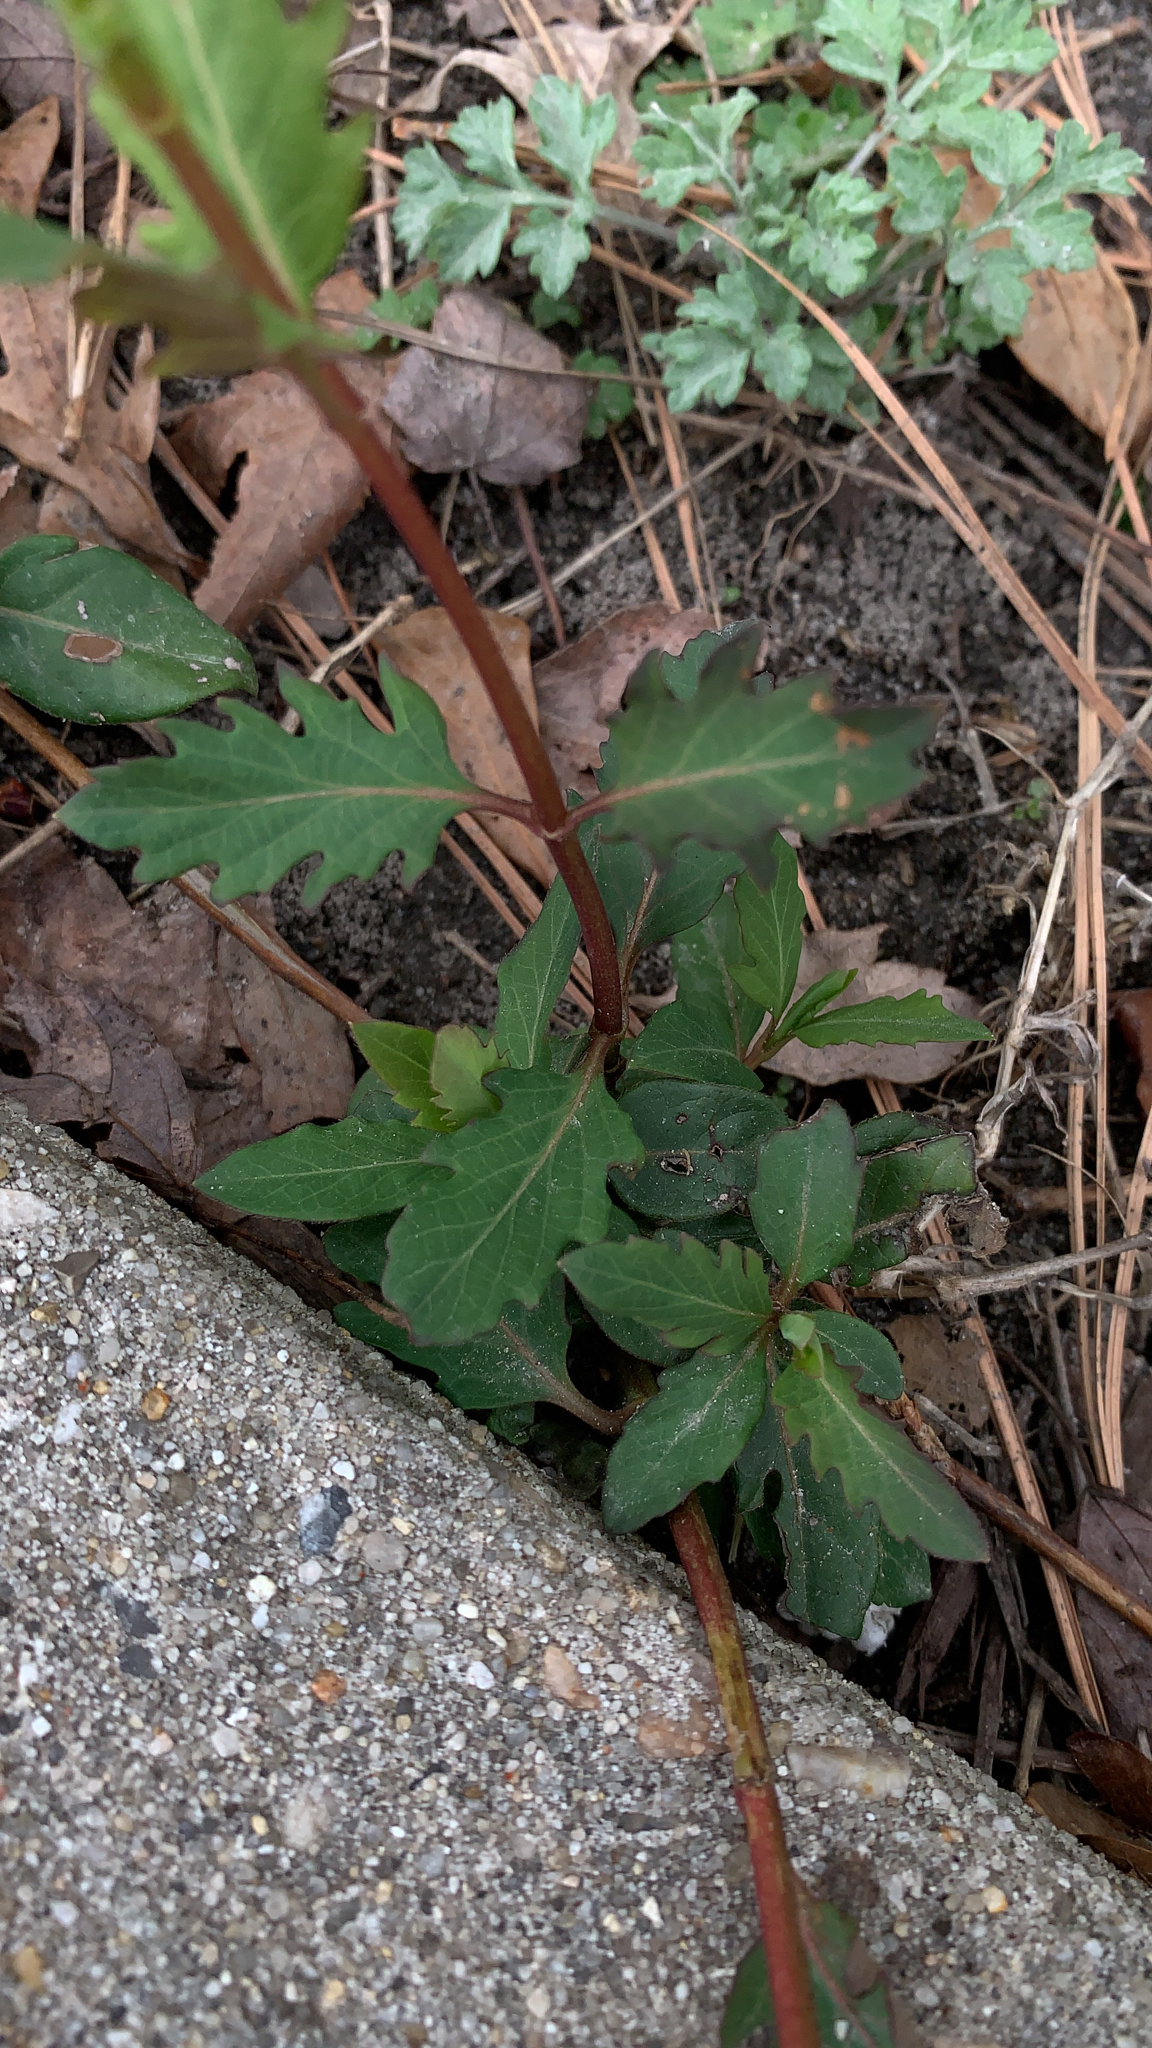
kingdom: Plantae
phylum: Tracheophyta
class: Magnoliopsida
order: Dipsacales
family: Caprifoliaceae
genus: Lonicera
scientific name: Lonicera japonica
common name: Japanese honeysuckle
